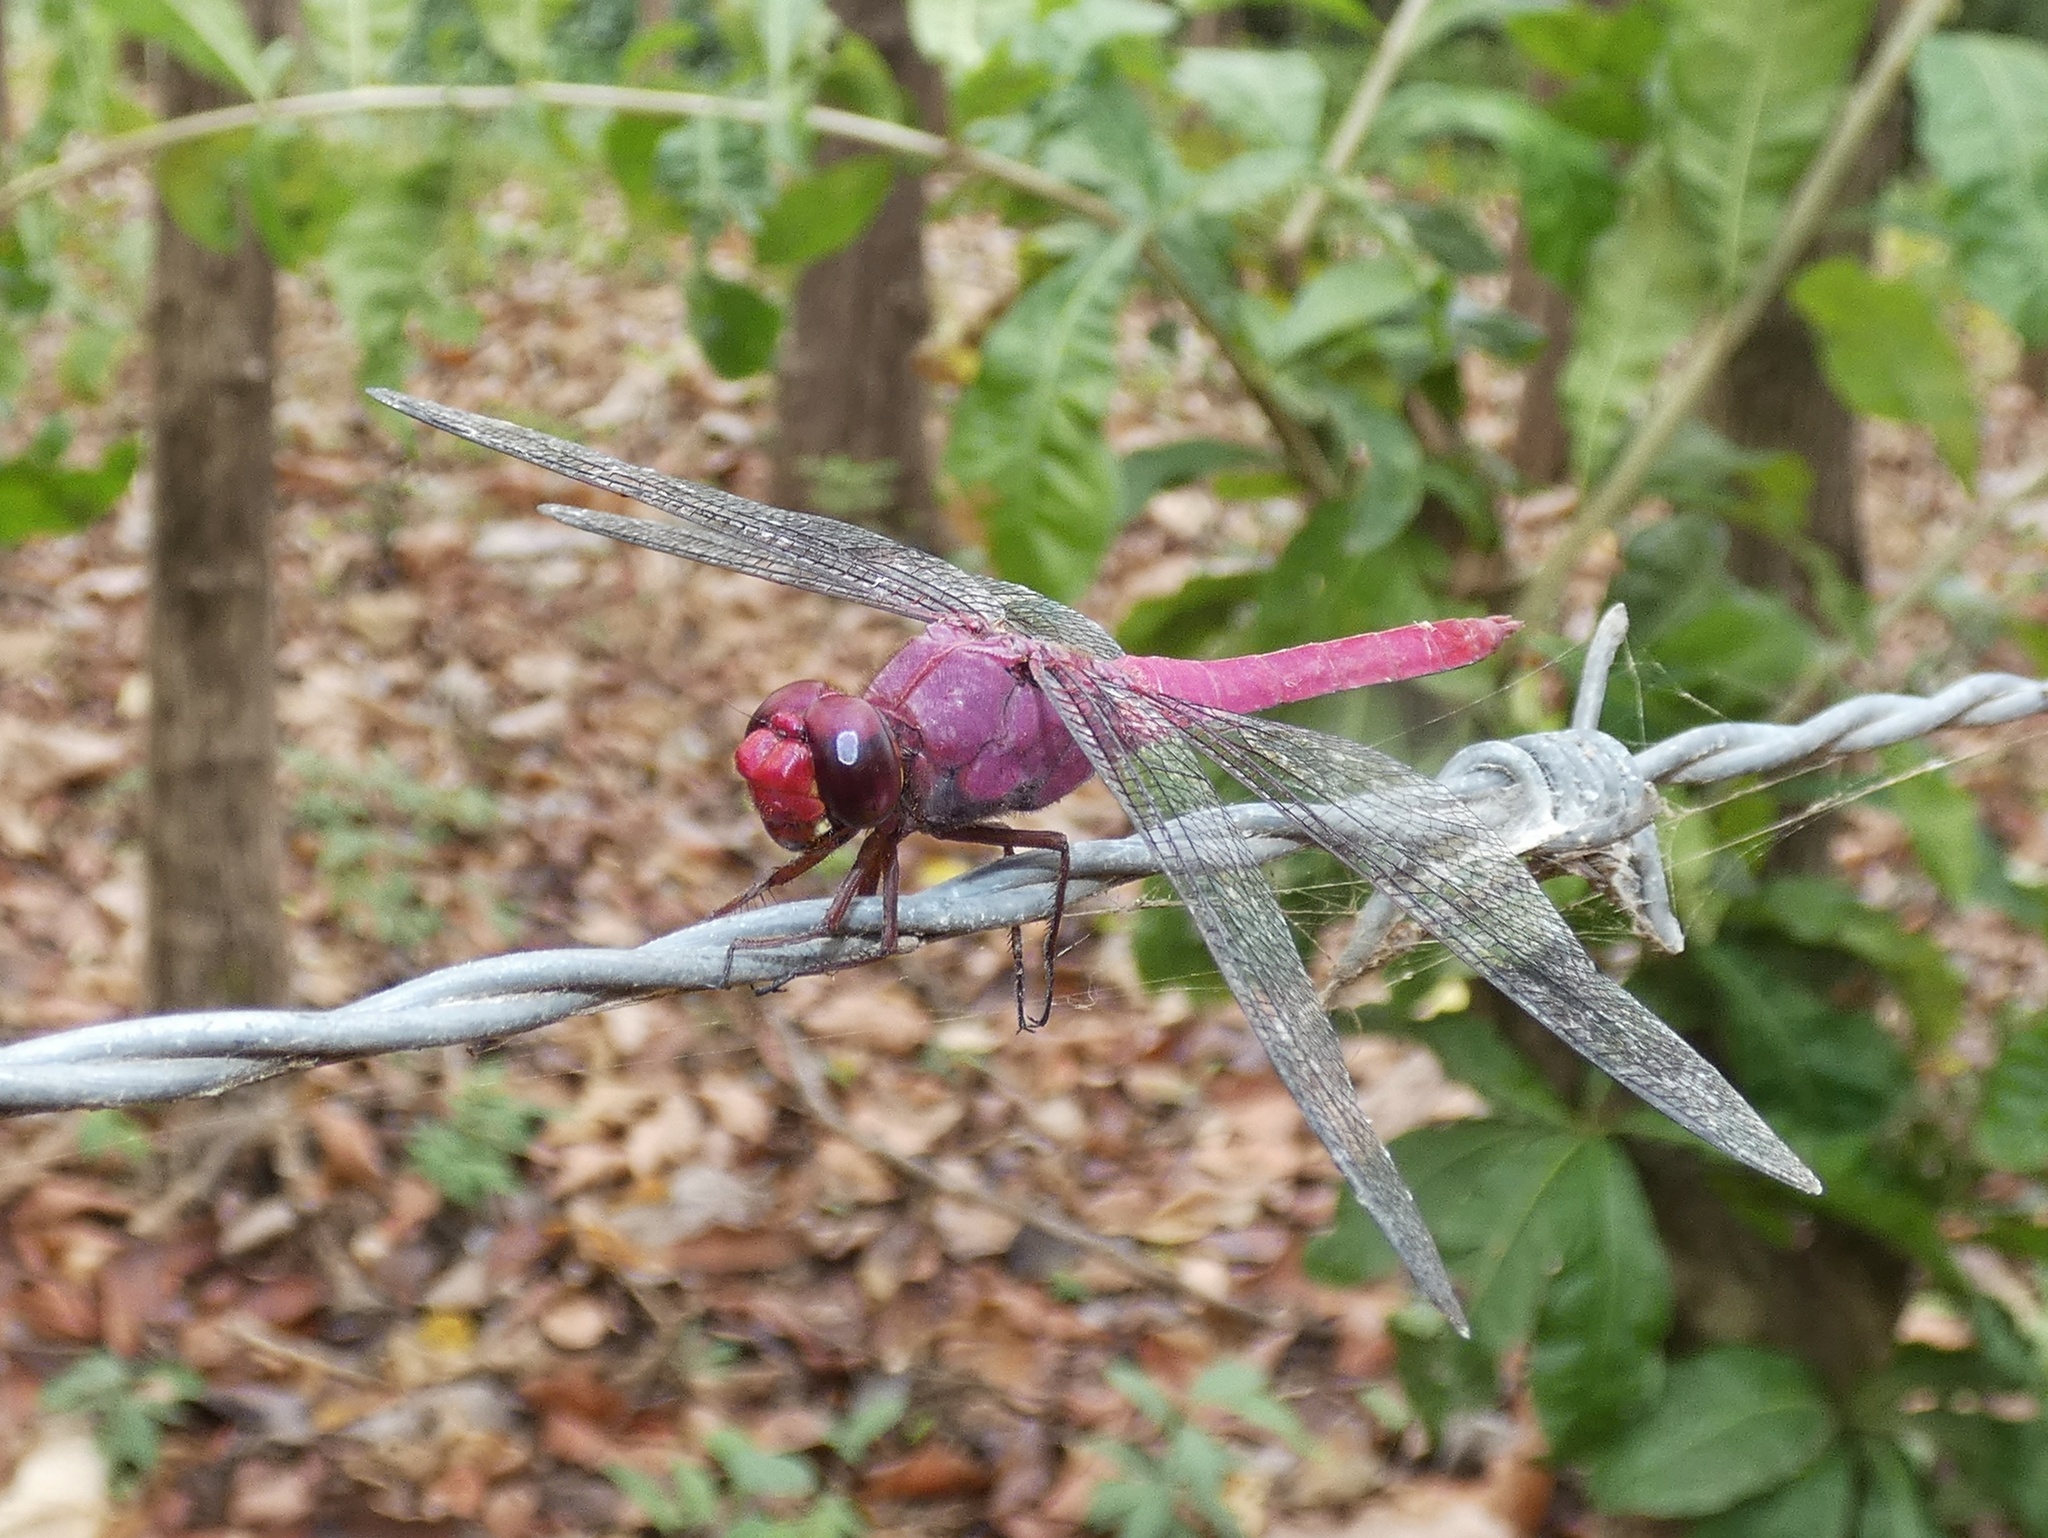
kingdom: Animalia
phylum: Arthropoda
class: Insecta
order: Odonata
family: Libellulidae
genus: Orthemis
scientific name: Orthemis discolor
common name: Carmine skimmer
